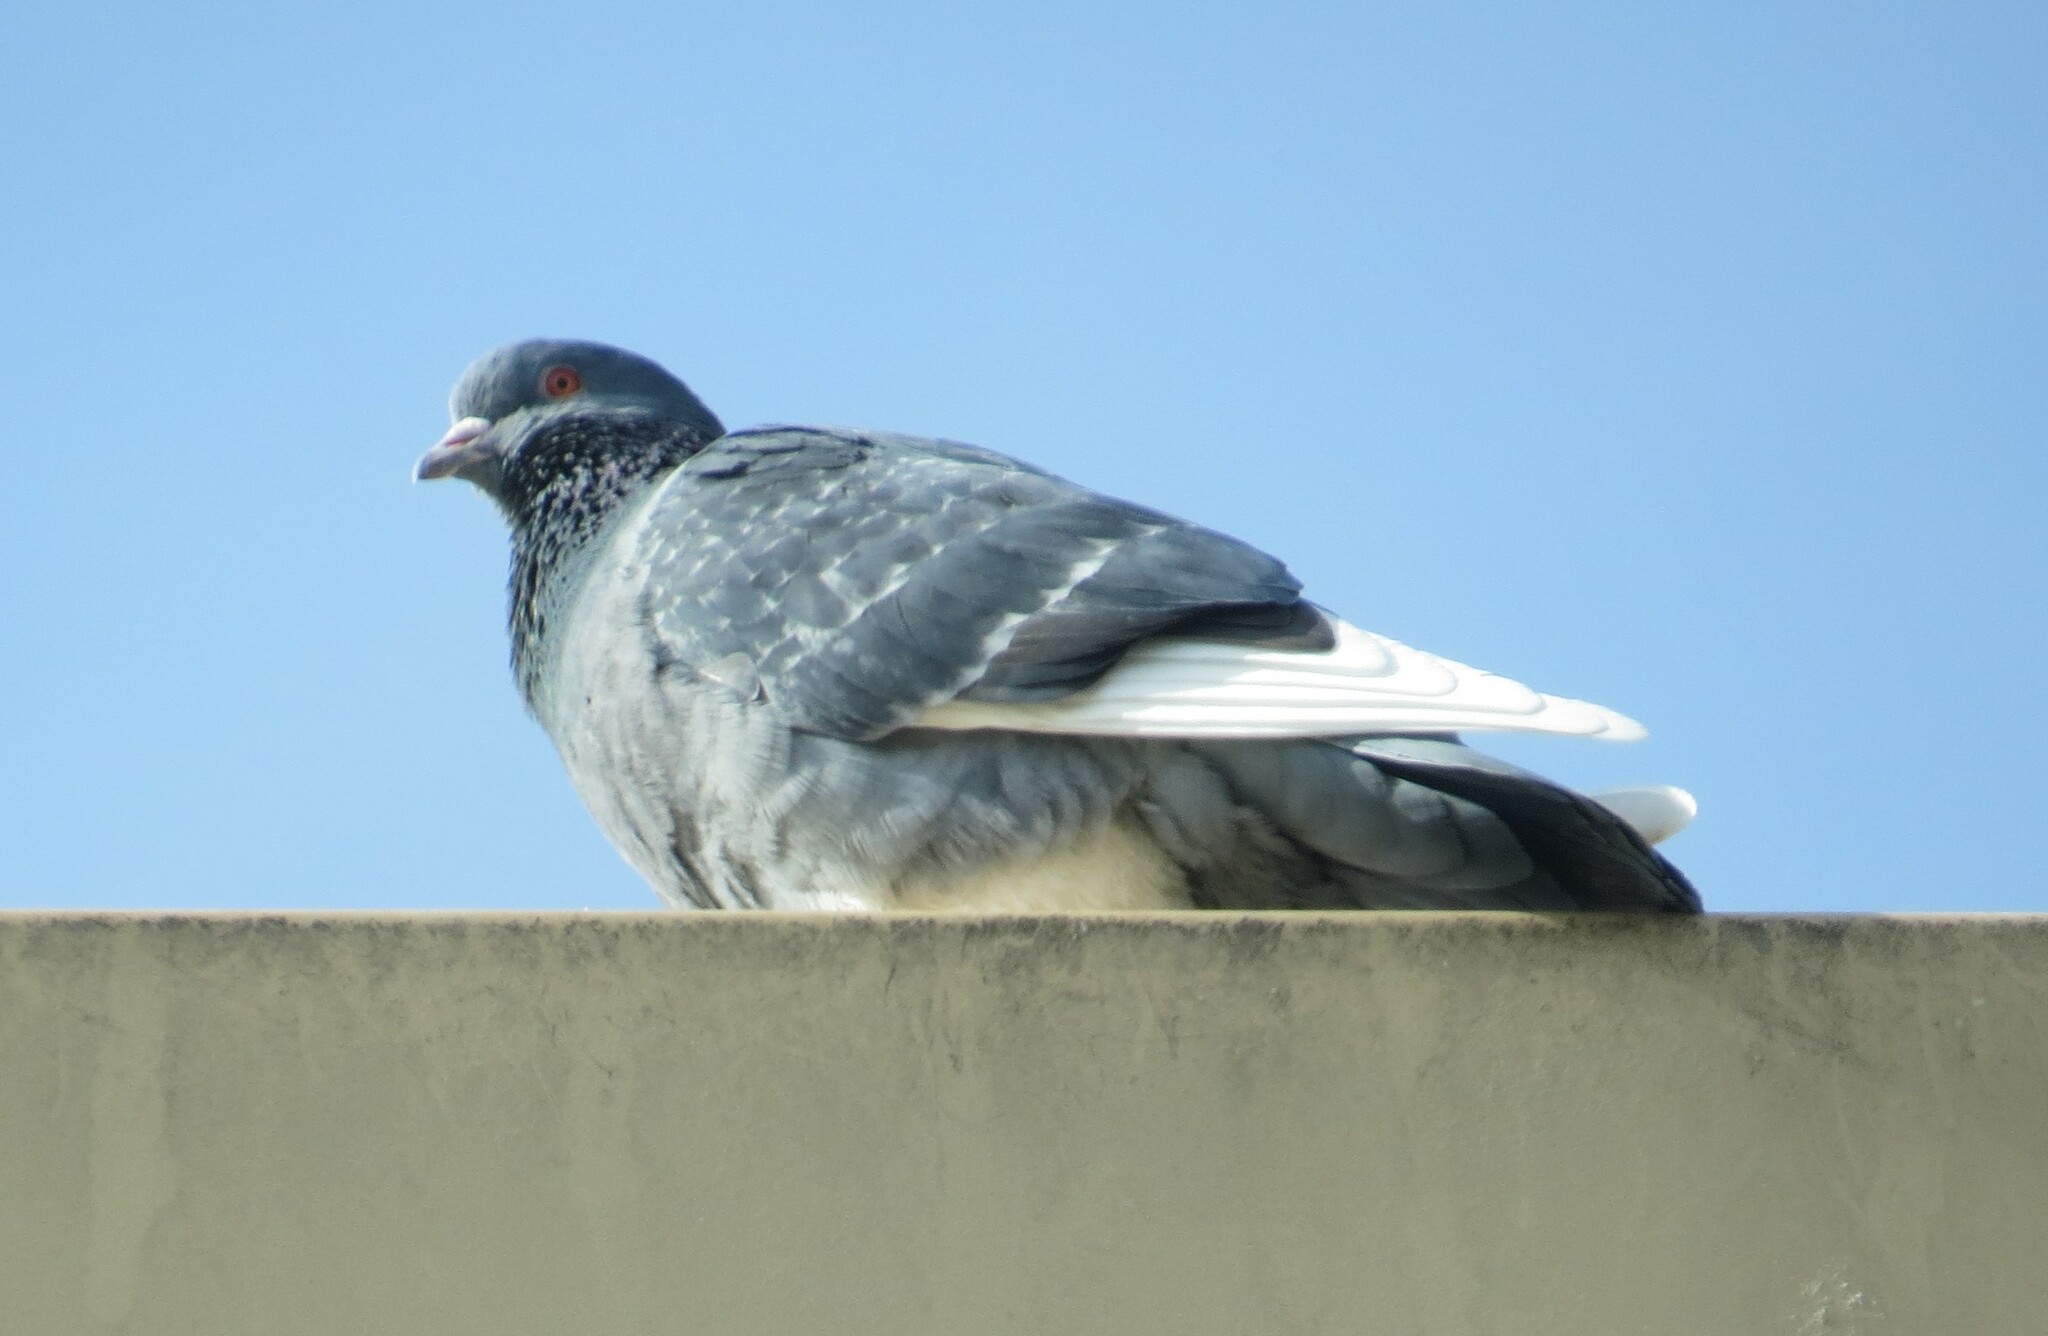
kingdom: Animalia
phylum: Chordata
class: Aves
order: Columbiformes
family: Columbidae
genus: Columba
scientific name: Columba livia
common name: Rock pigeon
